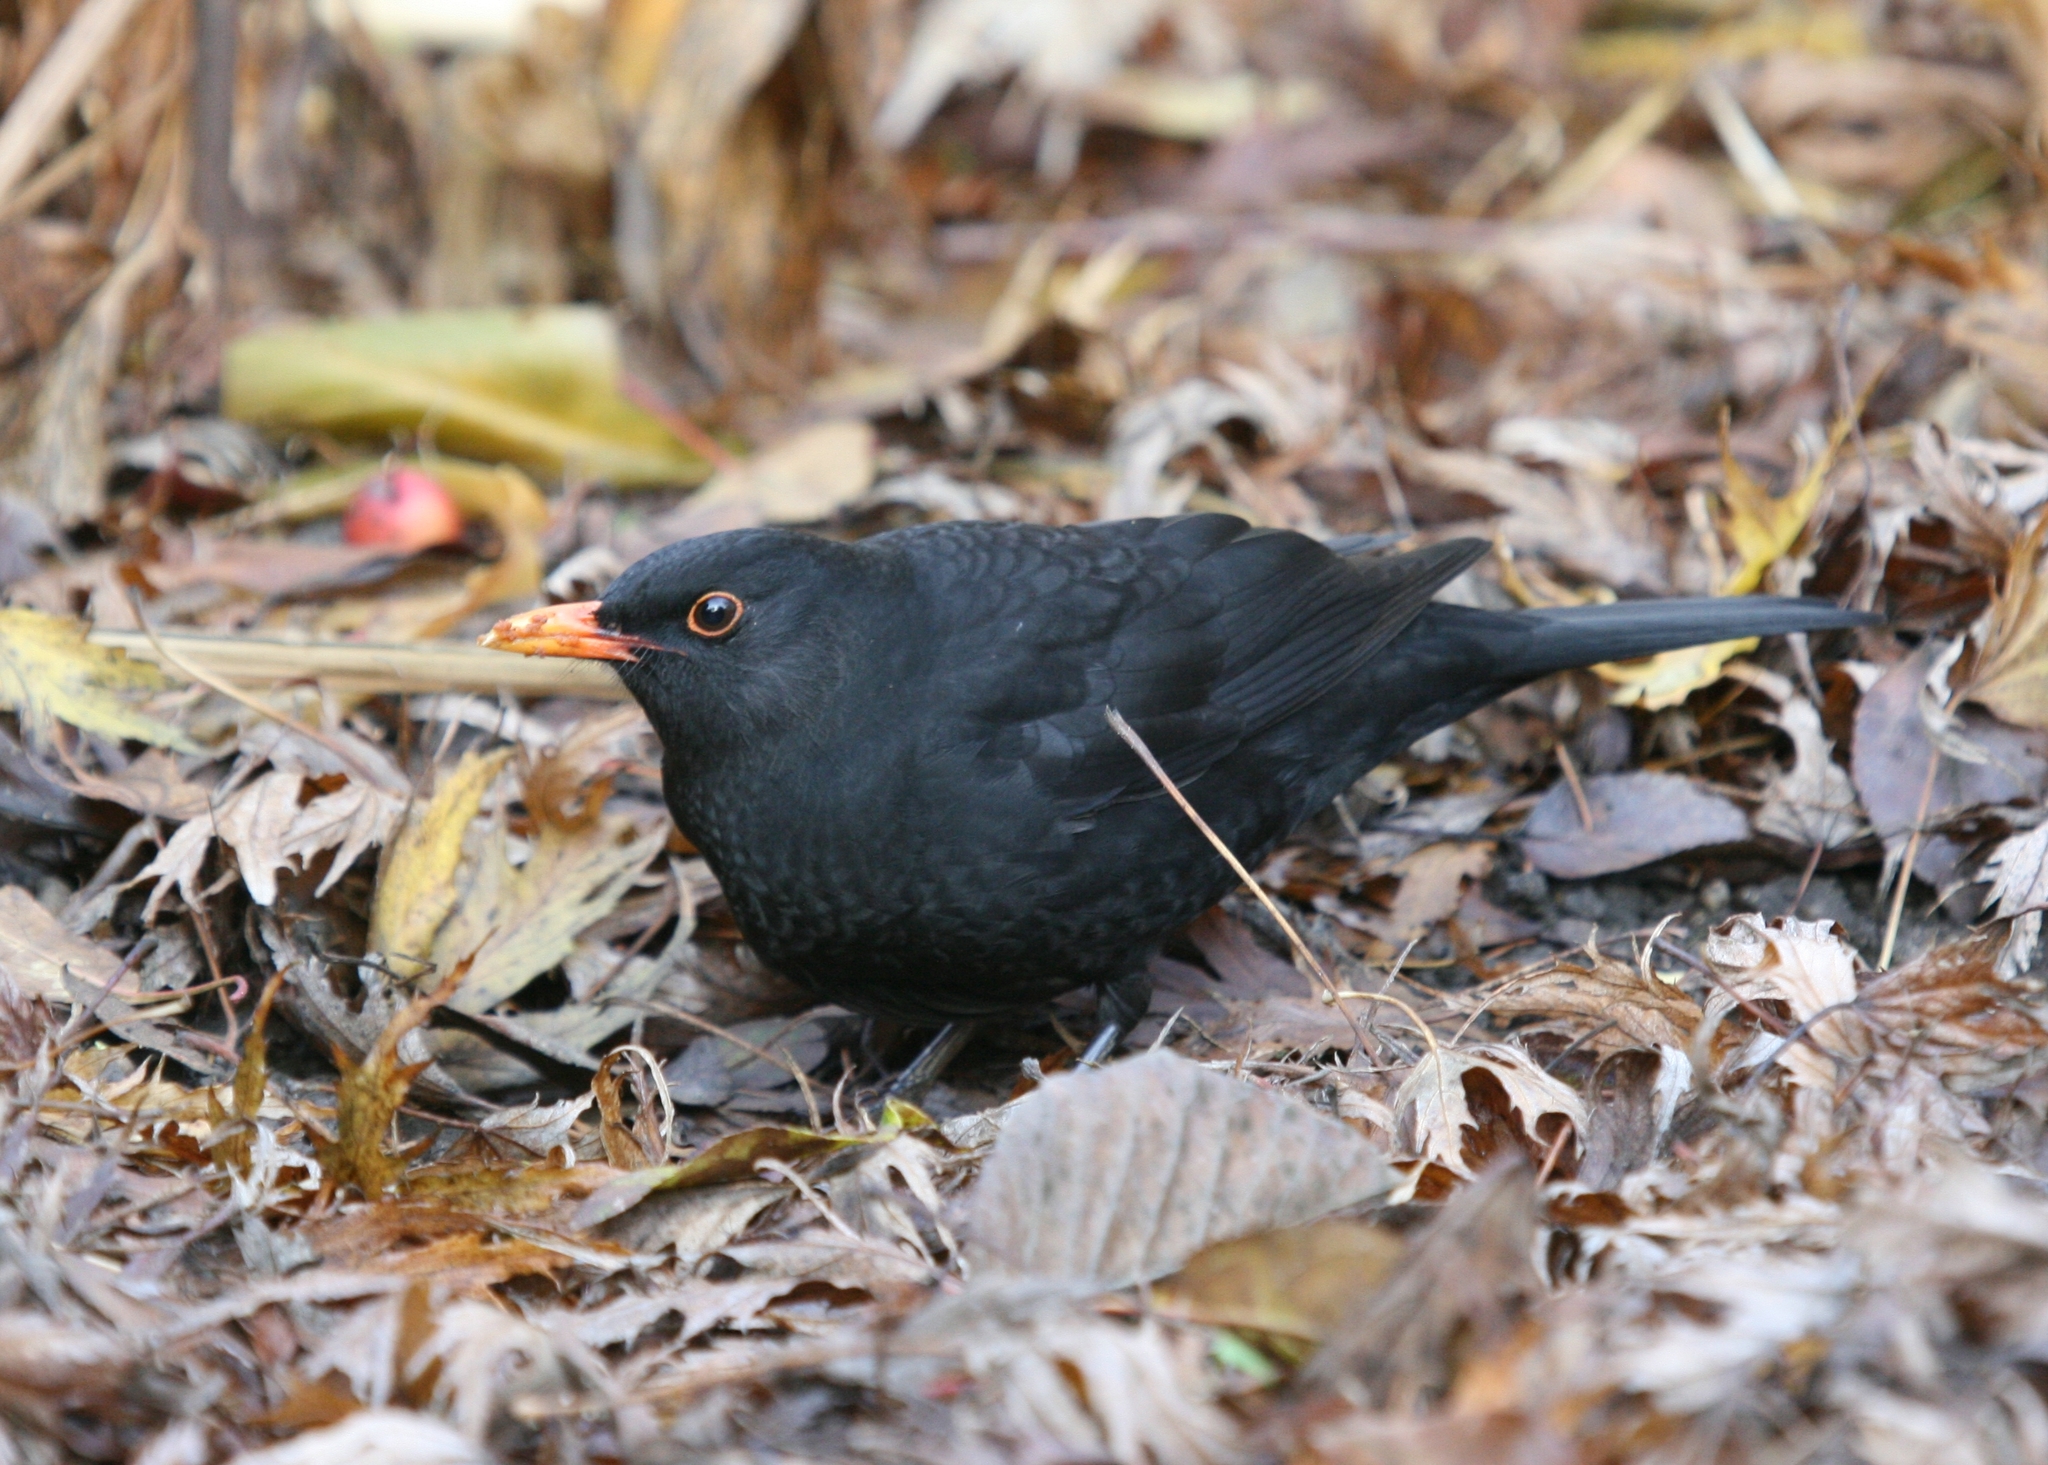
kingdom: Animalia
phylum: Chordata
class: Aves
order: Passeriformes
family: Turdidae
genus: Turdus
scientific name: Turdus merula
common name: Common blackbird
